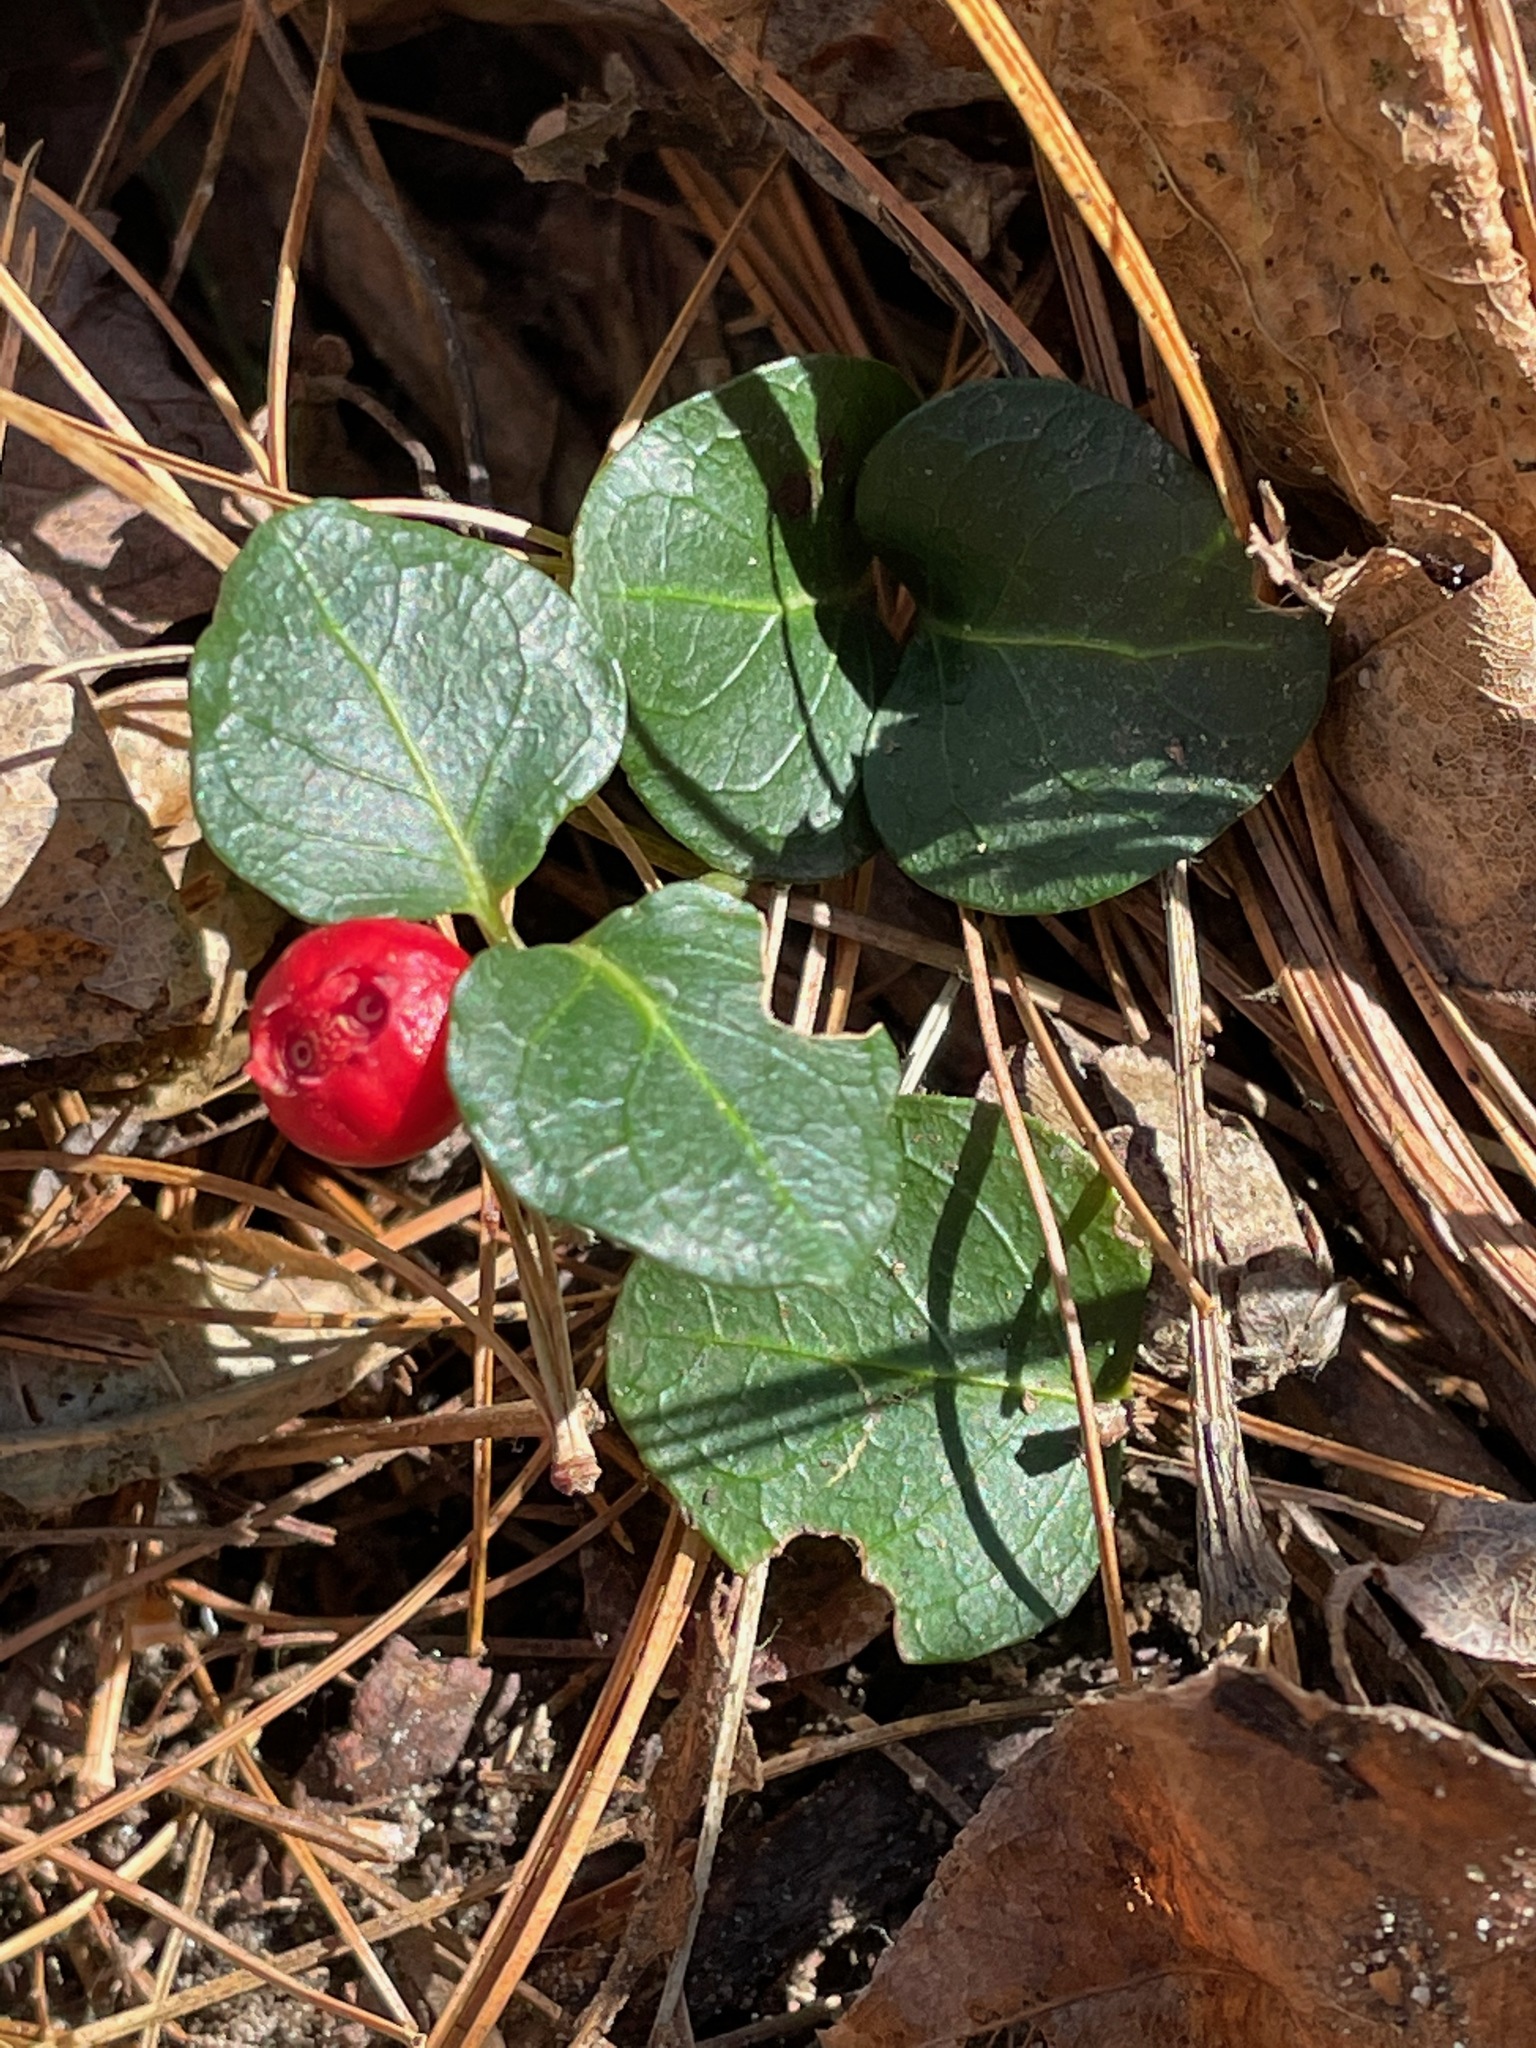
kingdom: Plantae
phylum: Tracheophyta
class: Magnoliopsida
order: Gentianales
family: Rubiaceae
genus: Mitchella
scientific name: Mitchella repens
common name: Partridge-berry
